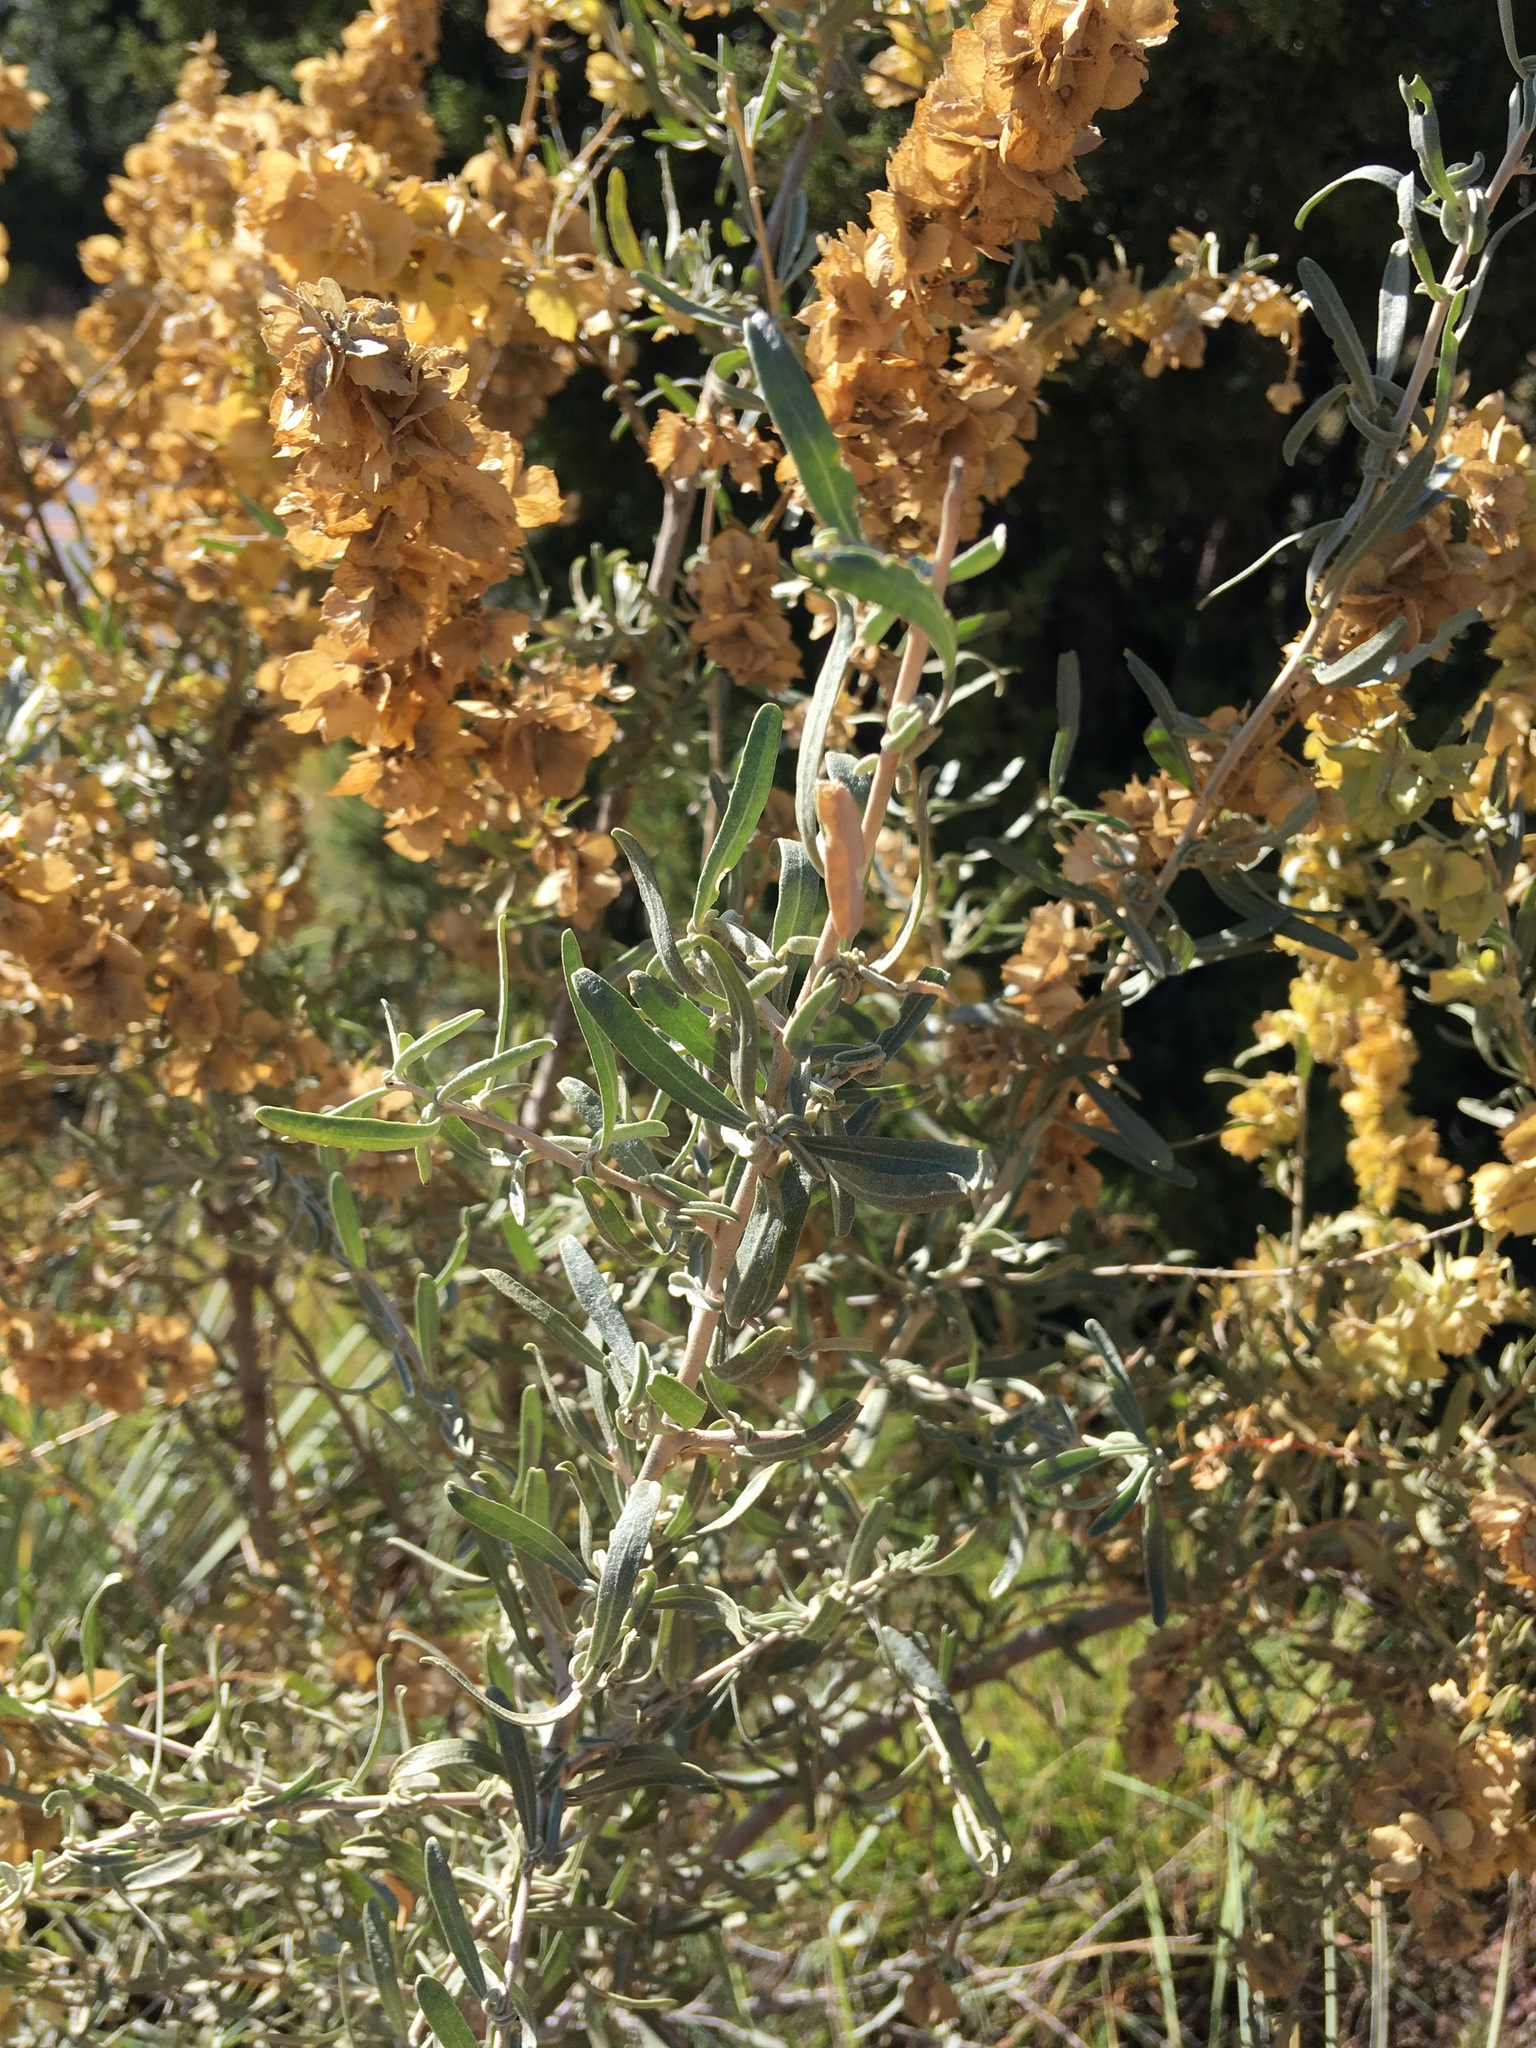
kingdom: Plantae
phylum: Tracheophyta
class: Magnoliopsida
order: Caryophyllales
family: Amaranthaceae
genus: Atriplex
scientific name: Atriplex canescens
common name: Four-wing saltbush
